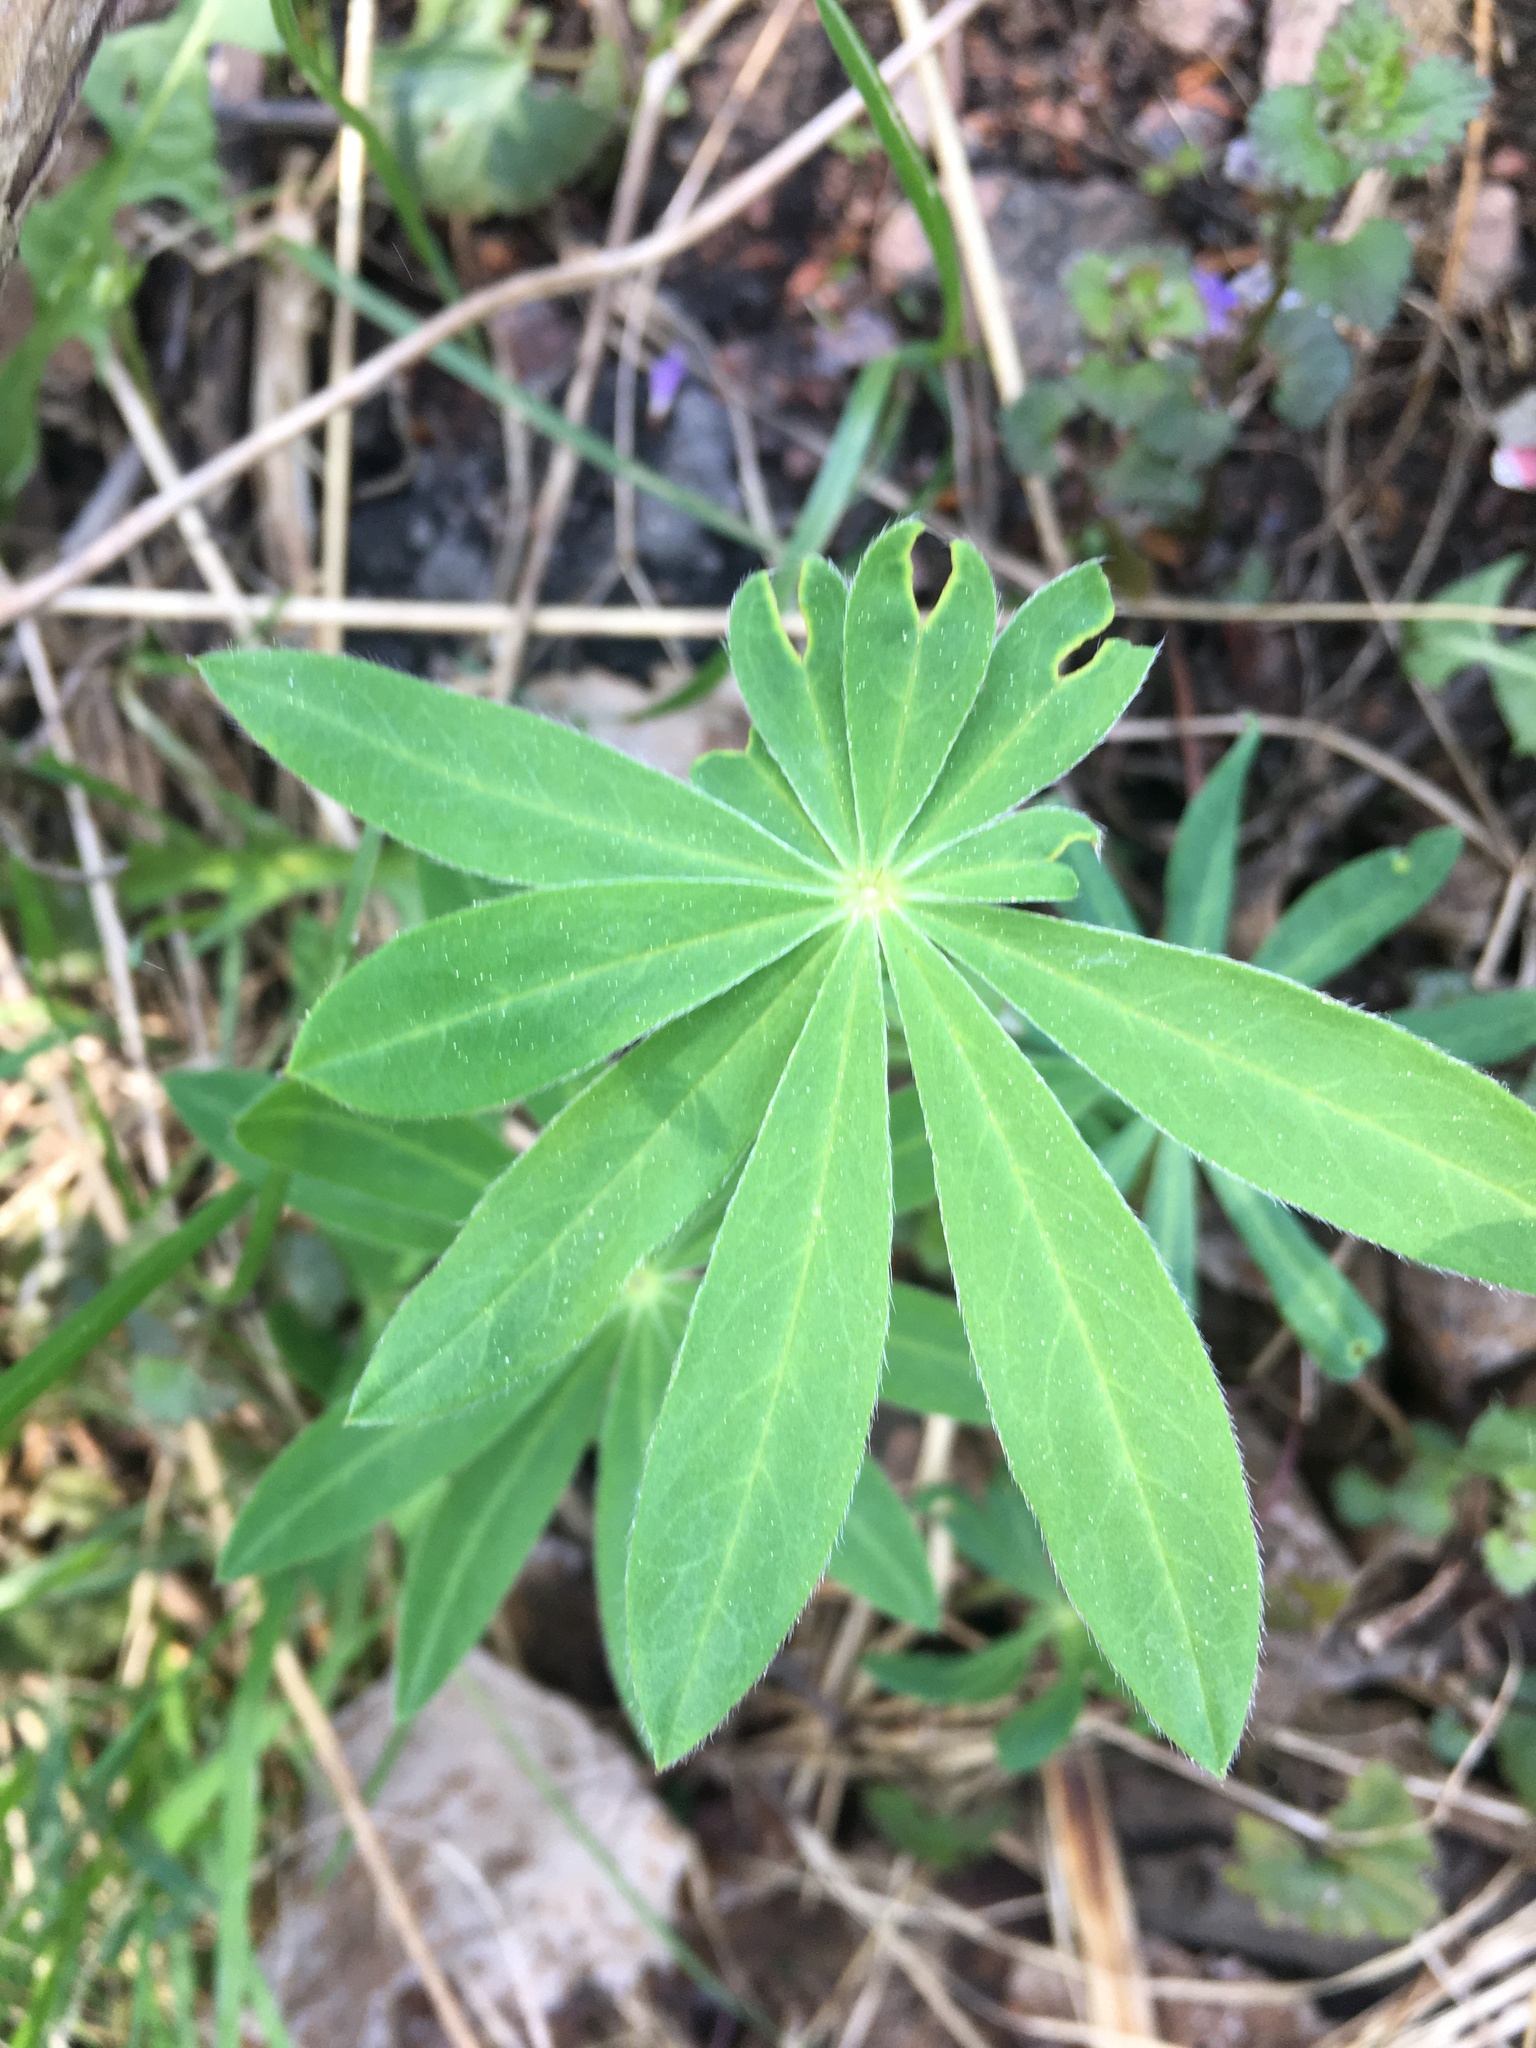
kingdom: Plantae
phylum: Tracheophyta
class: Magnoliopsida
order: Fabales
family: Fabaceae
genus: Lupinus
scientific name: Lupinus polyphyllus
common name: Garden lupin
